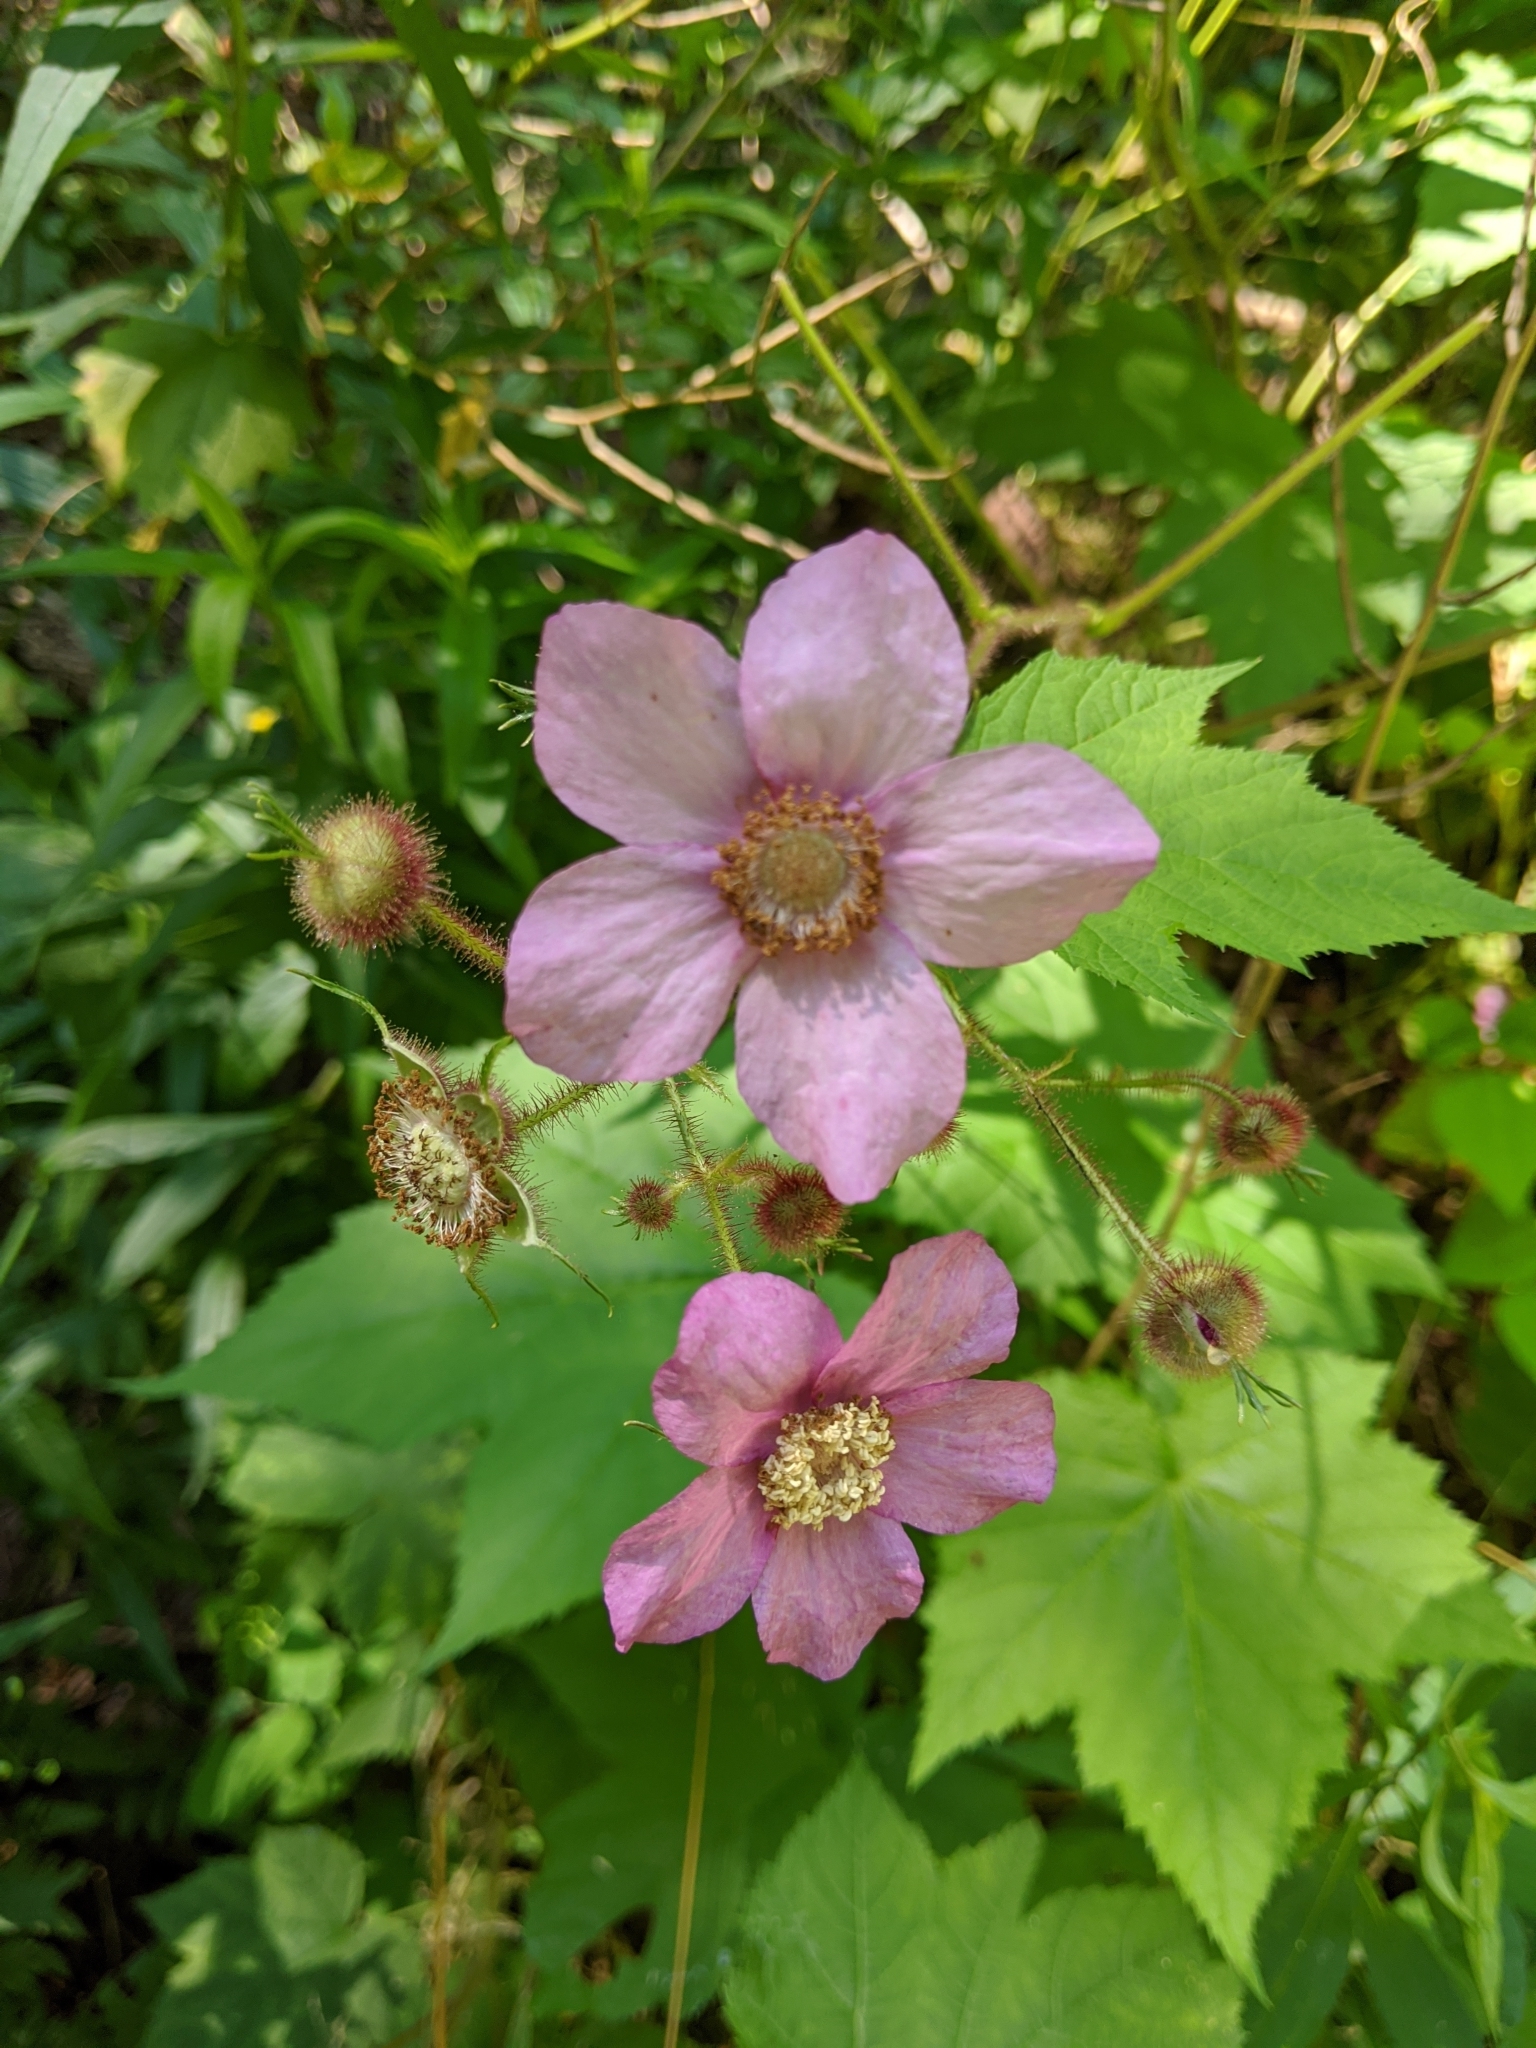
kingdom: Plantae
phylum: Tracheophyta
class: Magnoliopsida
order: Rosales
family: Rosaceae
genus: Rubus
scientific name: Rubus odoratus
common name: Purple-flowered raspberry
